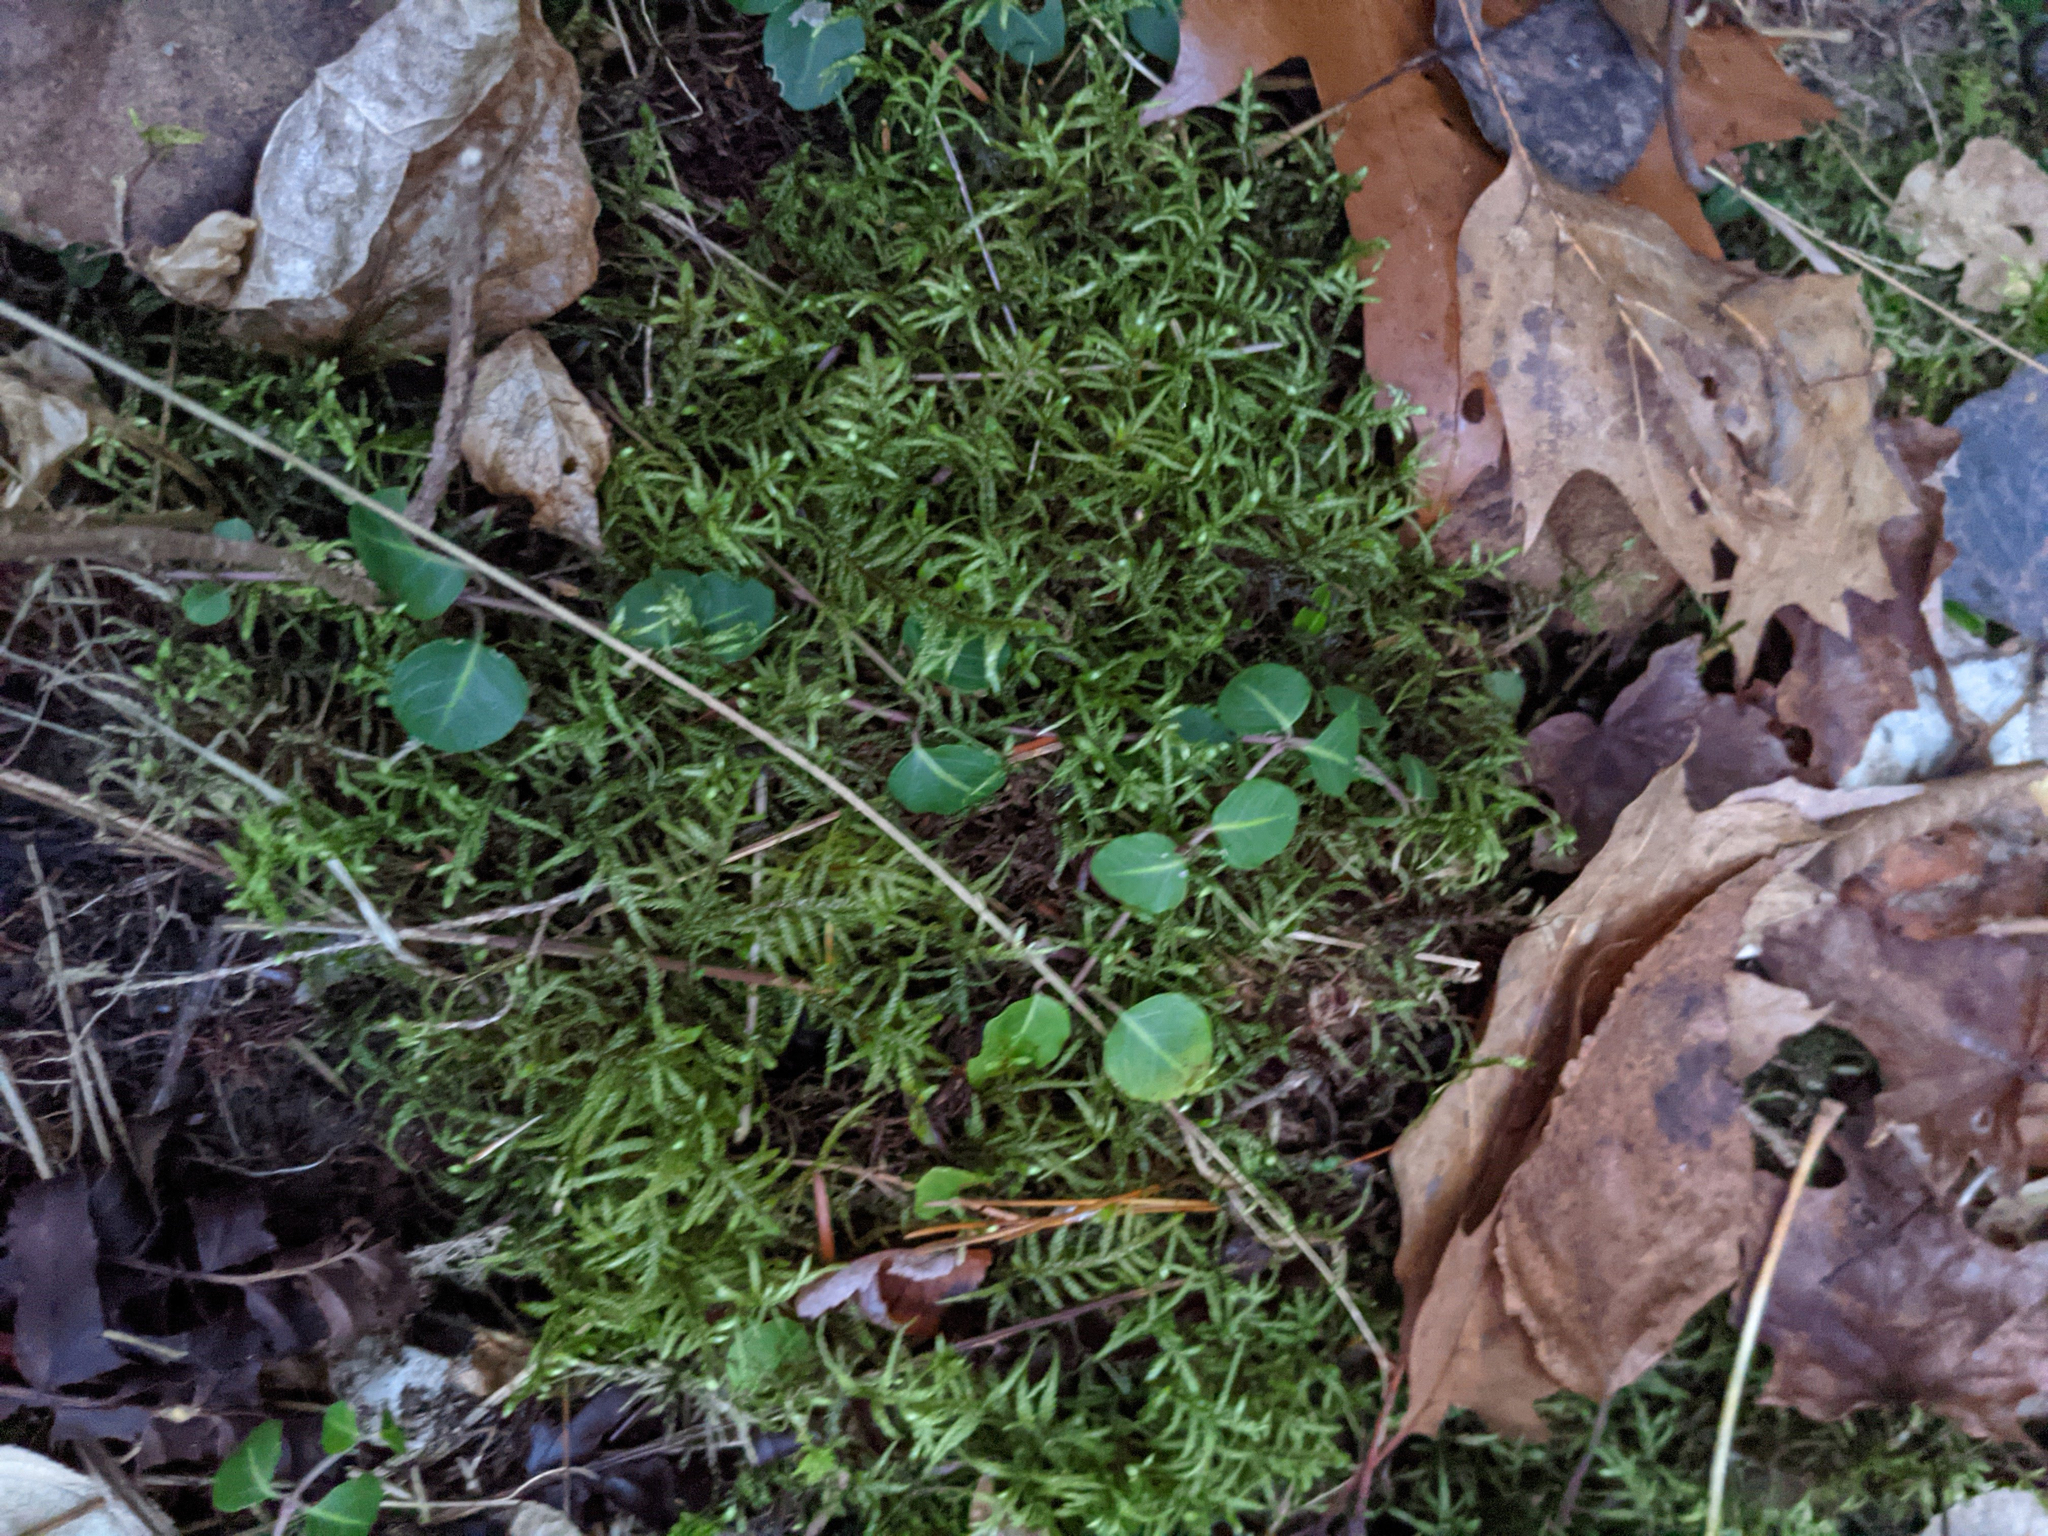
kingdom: Plantae
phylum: Tracheophyta
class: Magnoliopsida
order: Gentianales
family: Rubiaceae
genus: Mitchella
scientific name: Mitchella repens
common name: Partridge-berry
